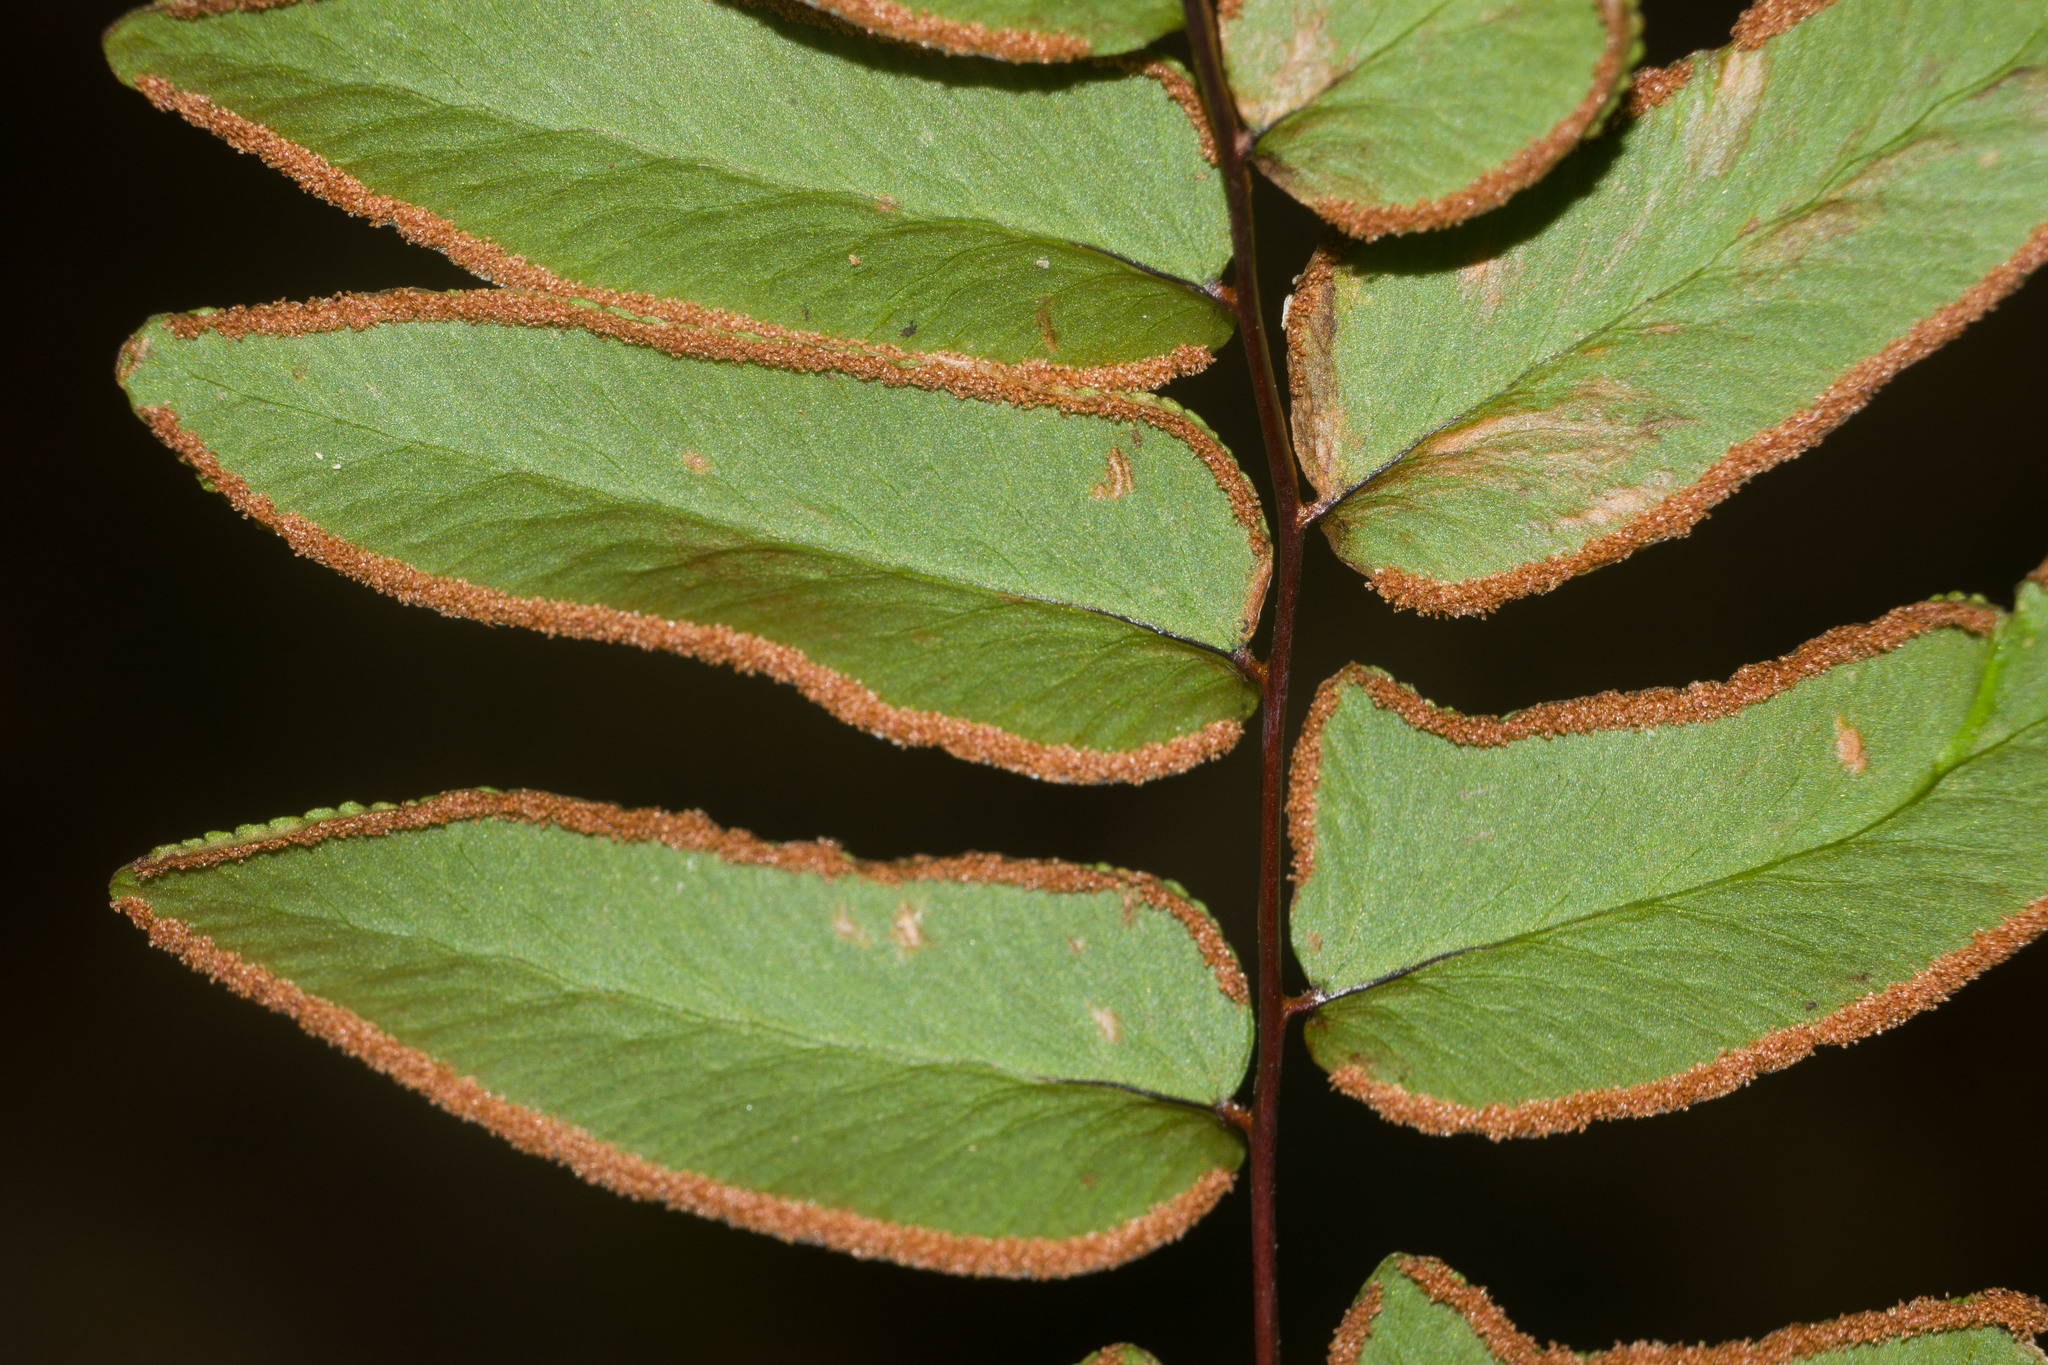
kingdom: Plantae
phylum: Tracheophyta
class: Polypodiopsida
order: Polypodiales
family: Pteridaceae
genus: Cheilanthes
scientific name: Cheilanthes viridis
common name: Green cliffbrake
